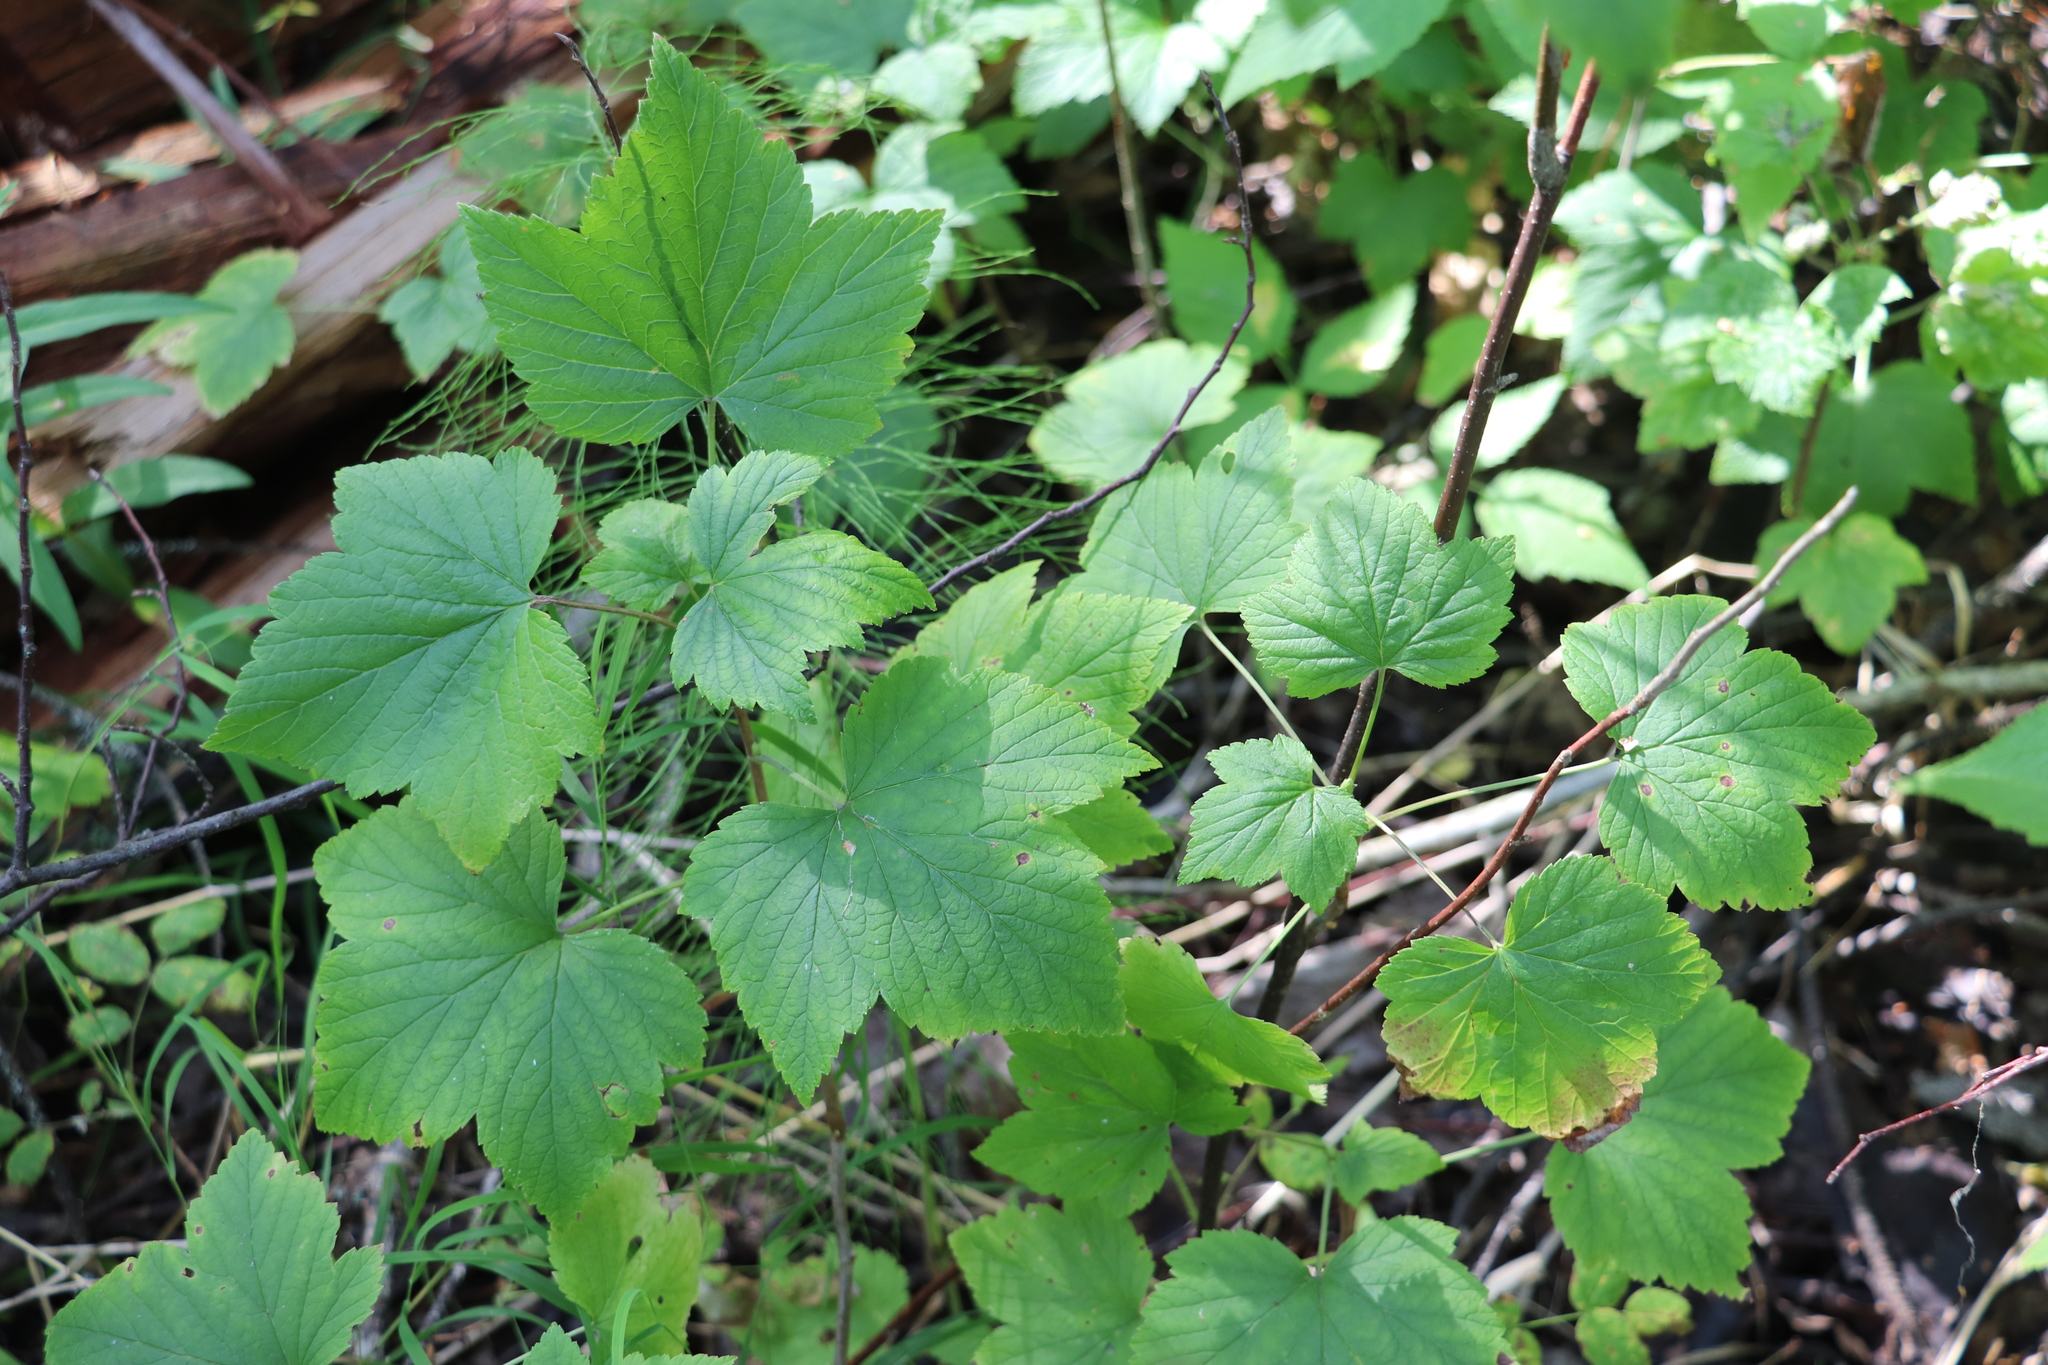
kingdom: Plantae
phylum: Tracheophyta
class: Magnoliopsida
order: Saxifragales
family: Grossulariaceae
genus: Ribes
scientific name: Ribes nigrum
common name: Black currant
